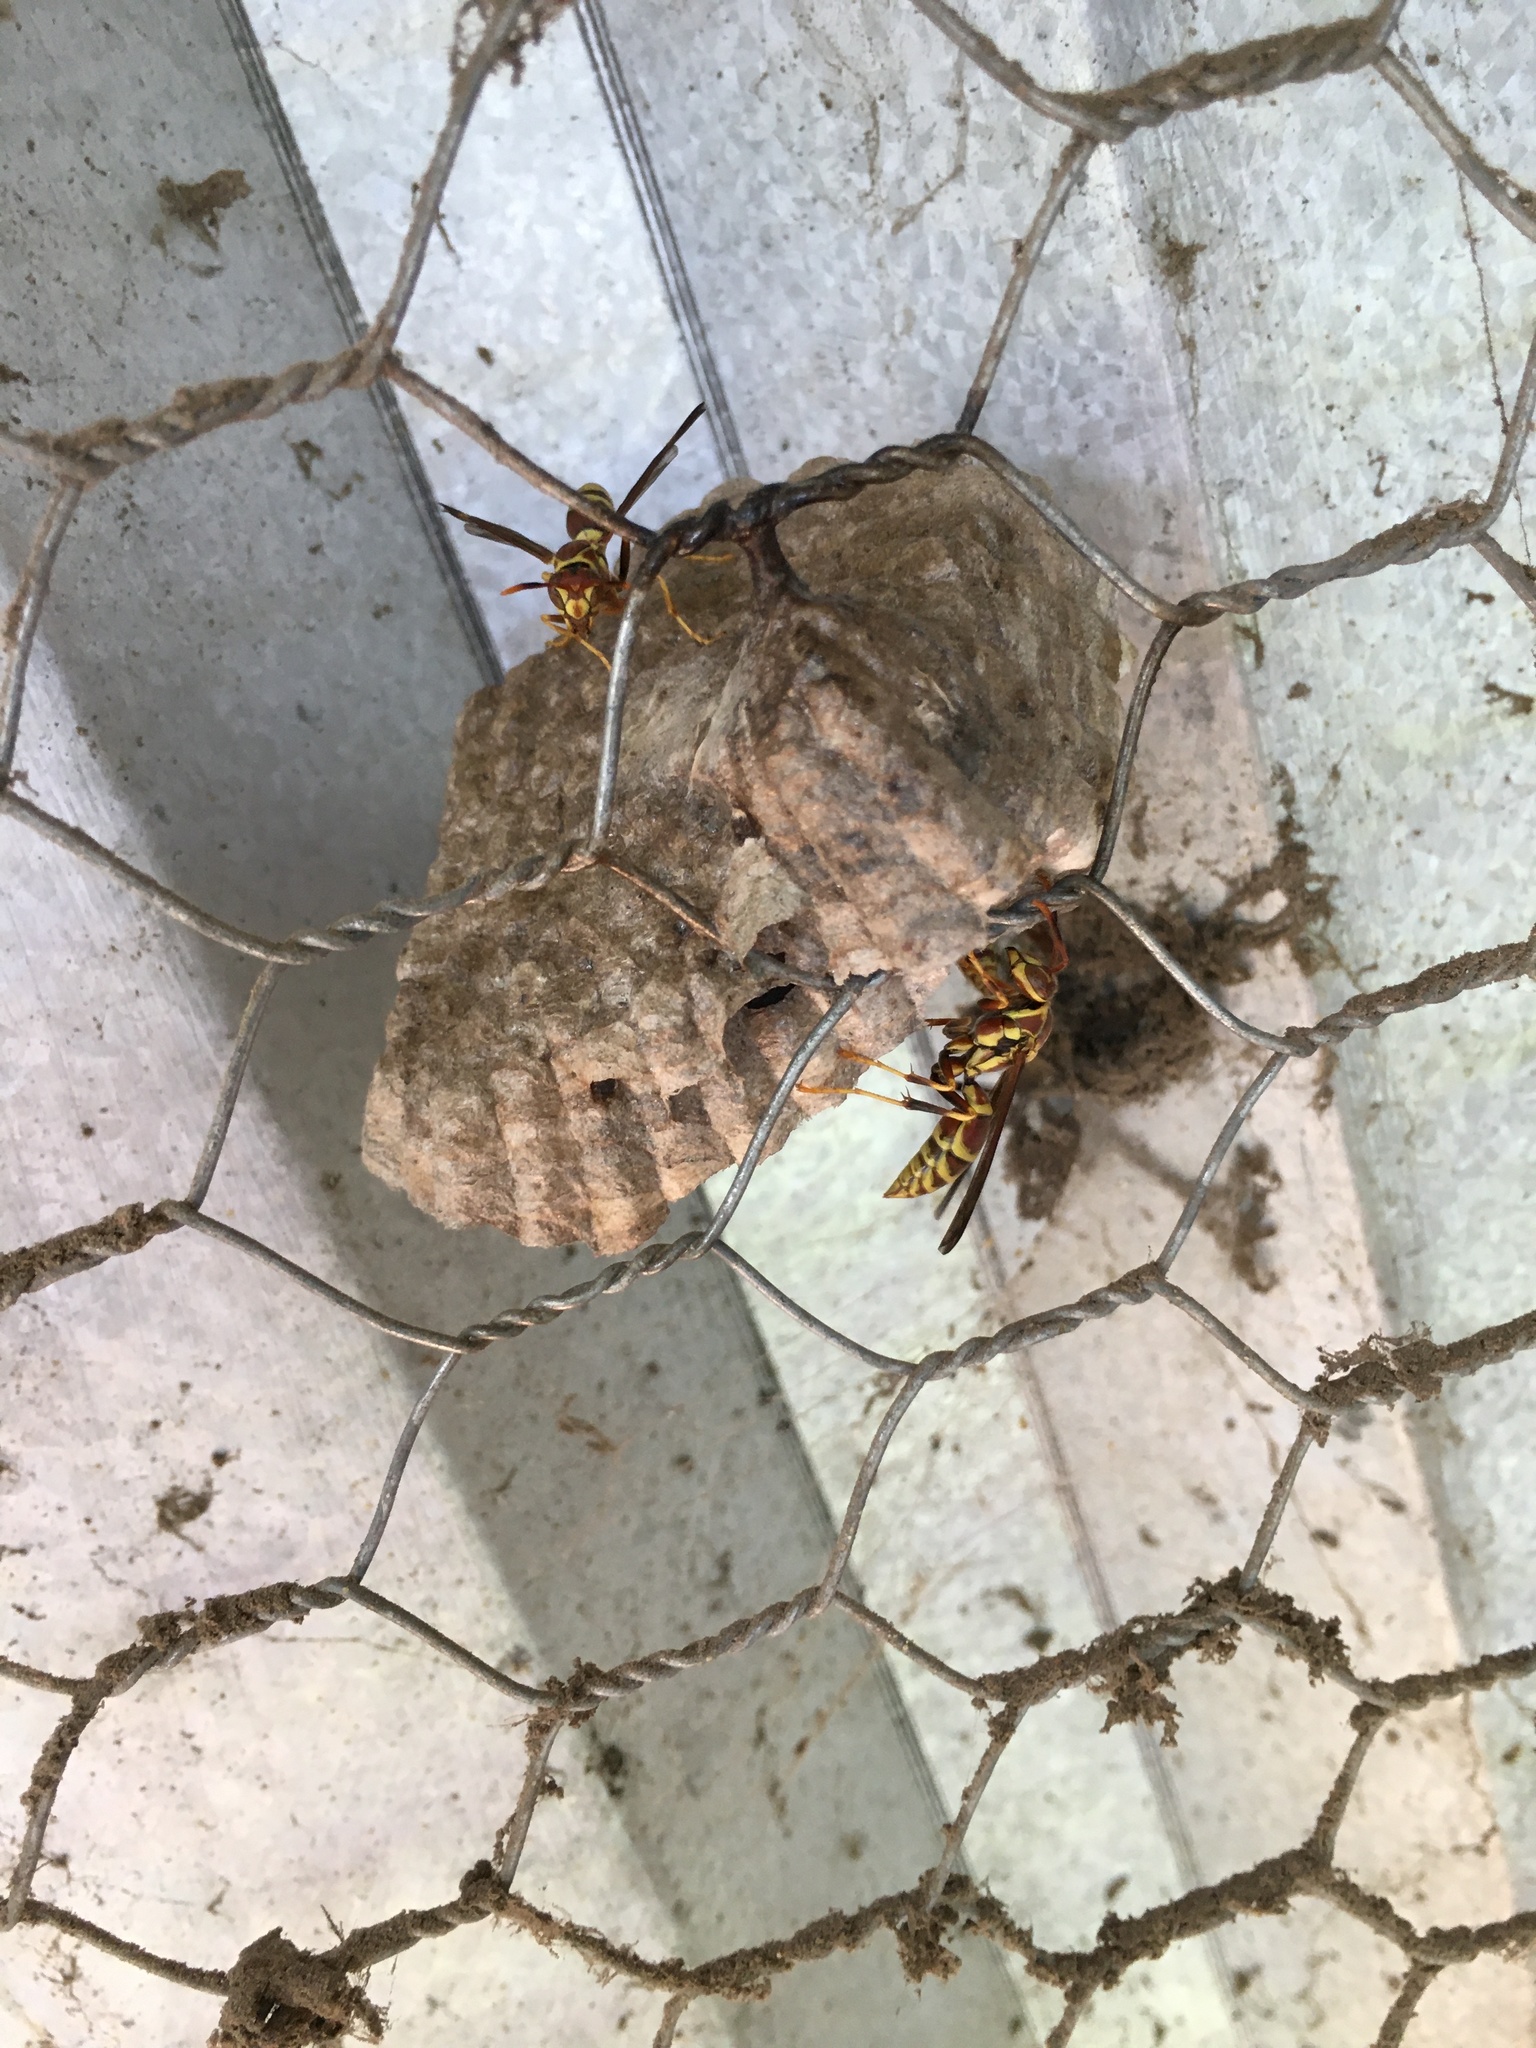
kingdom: Animalia
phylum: Arthropoda
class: Insecta
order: Hymenoptera
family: Eumenidae
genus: Polistes
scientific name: Polistes exclamans
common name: Paper wasp
